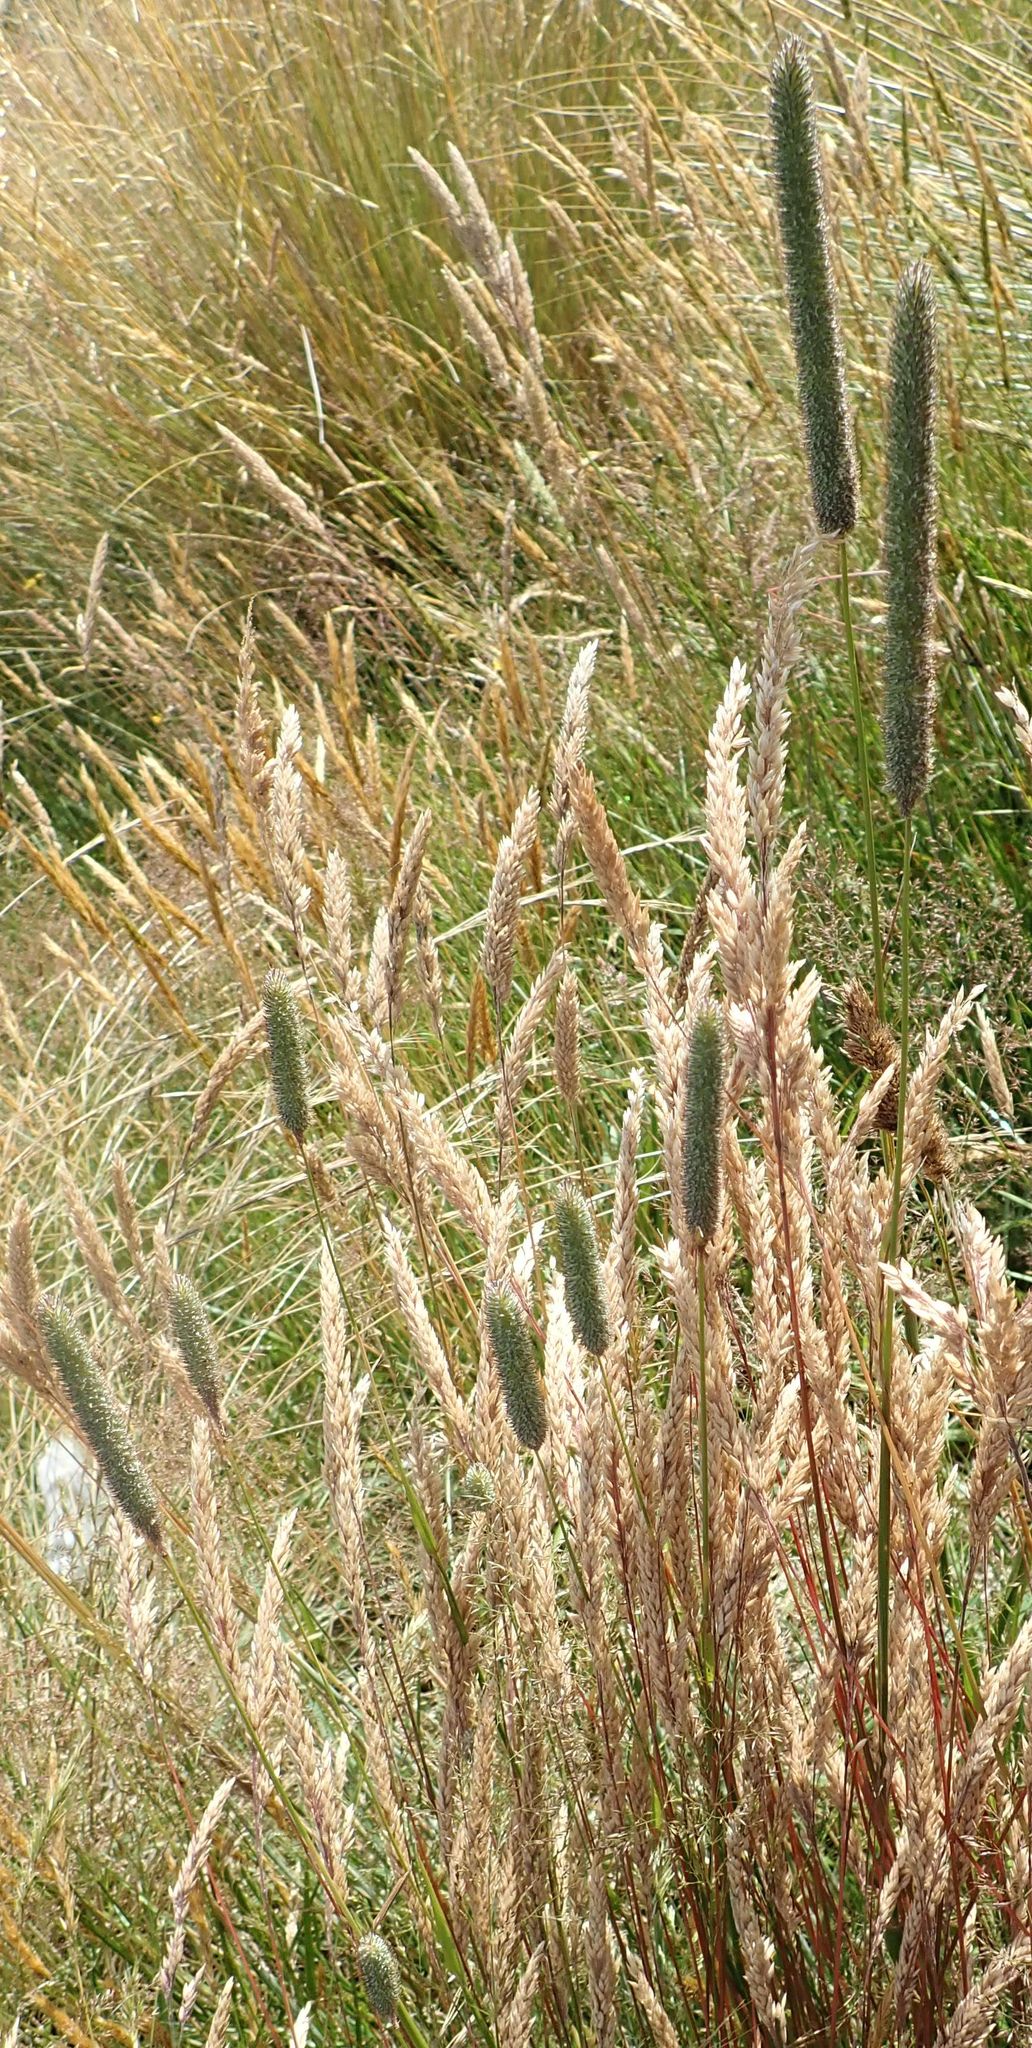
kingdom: Plantae
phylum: Tracheophyta
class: Liliopsida
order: Poales
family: Poaceae
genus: Phleum
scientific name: Phleum pratense
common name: Timothy grass
